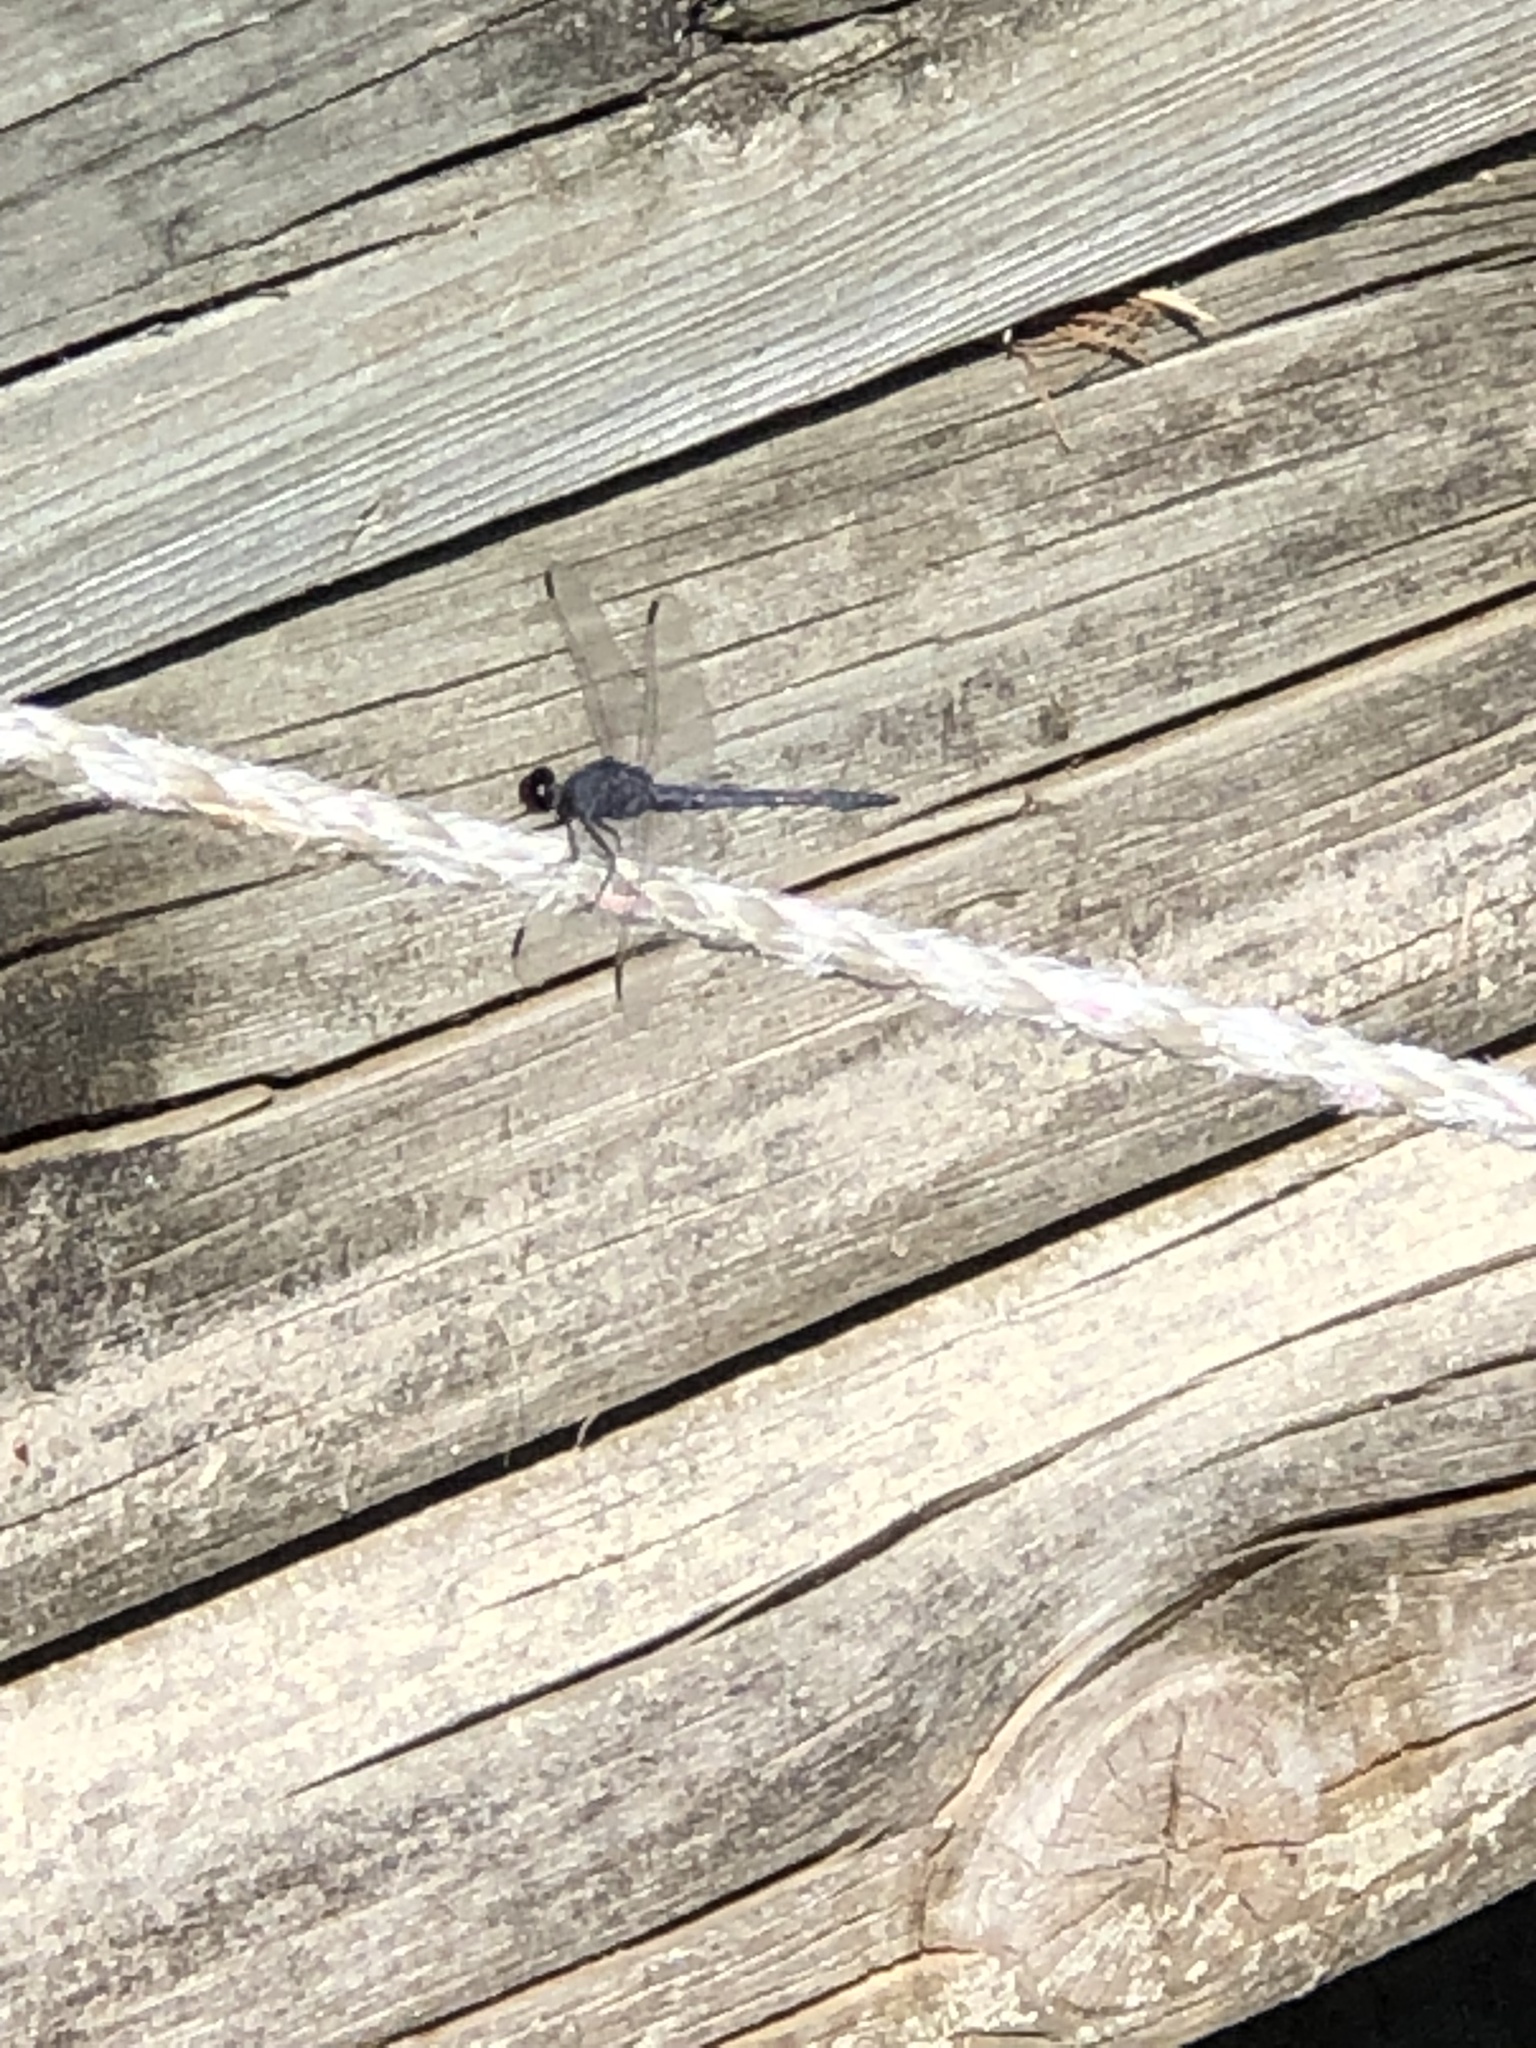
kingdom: Animalia
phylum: Arthropoda
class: Insecta
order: Odonata
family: Libellulidae
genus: Libellula
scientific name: Libellula incesta
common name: Slaty skimmer
